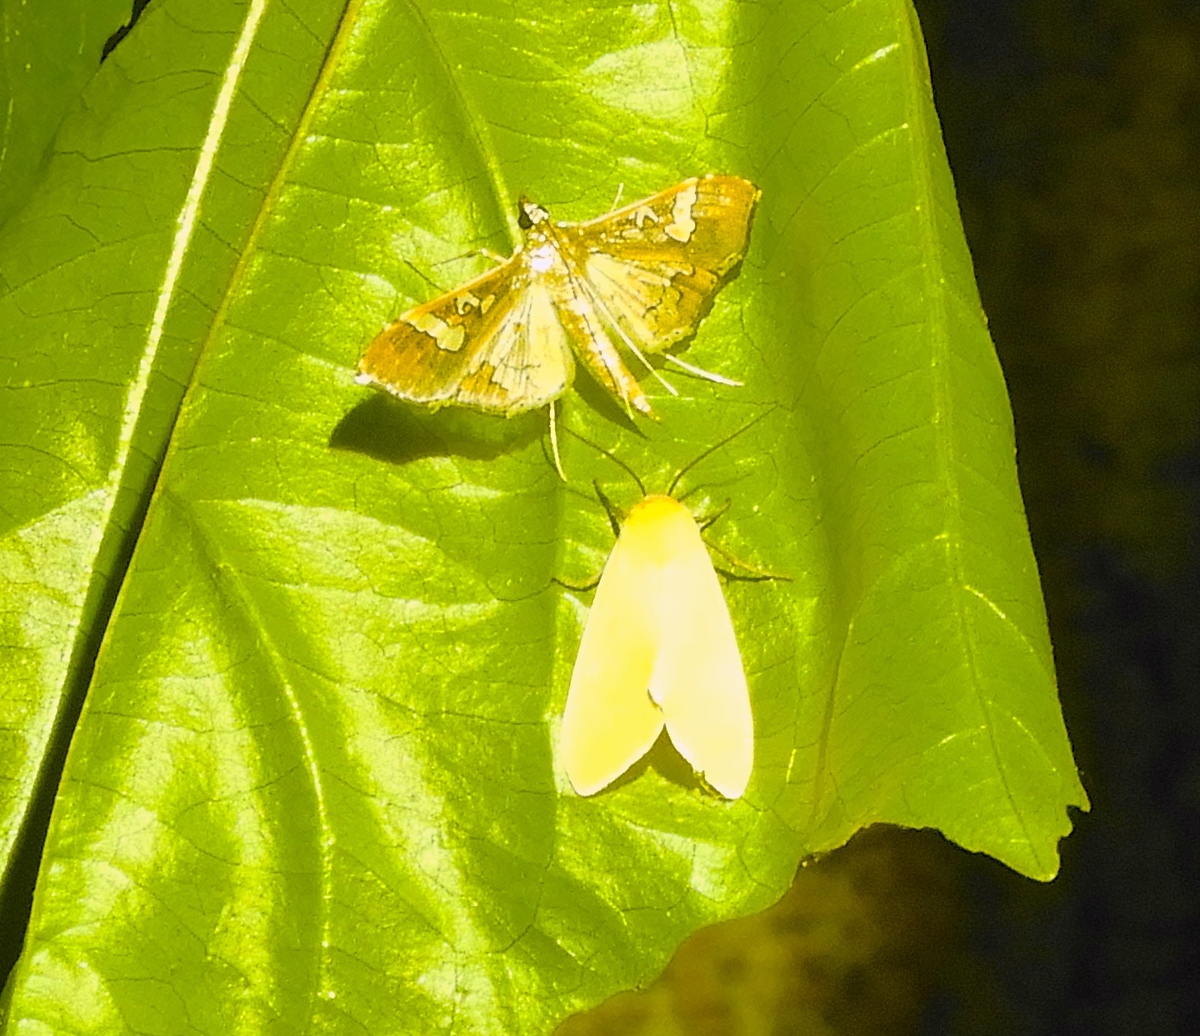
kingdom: Animalia
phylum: Arthropoda
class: Insecta
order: Lepidoptera
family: Crambidae
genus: Maruca
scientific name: Maruca vitrata
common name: Maruca pod borer
